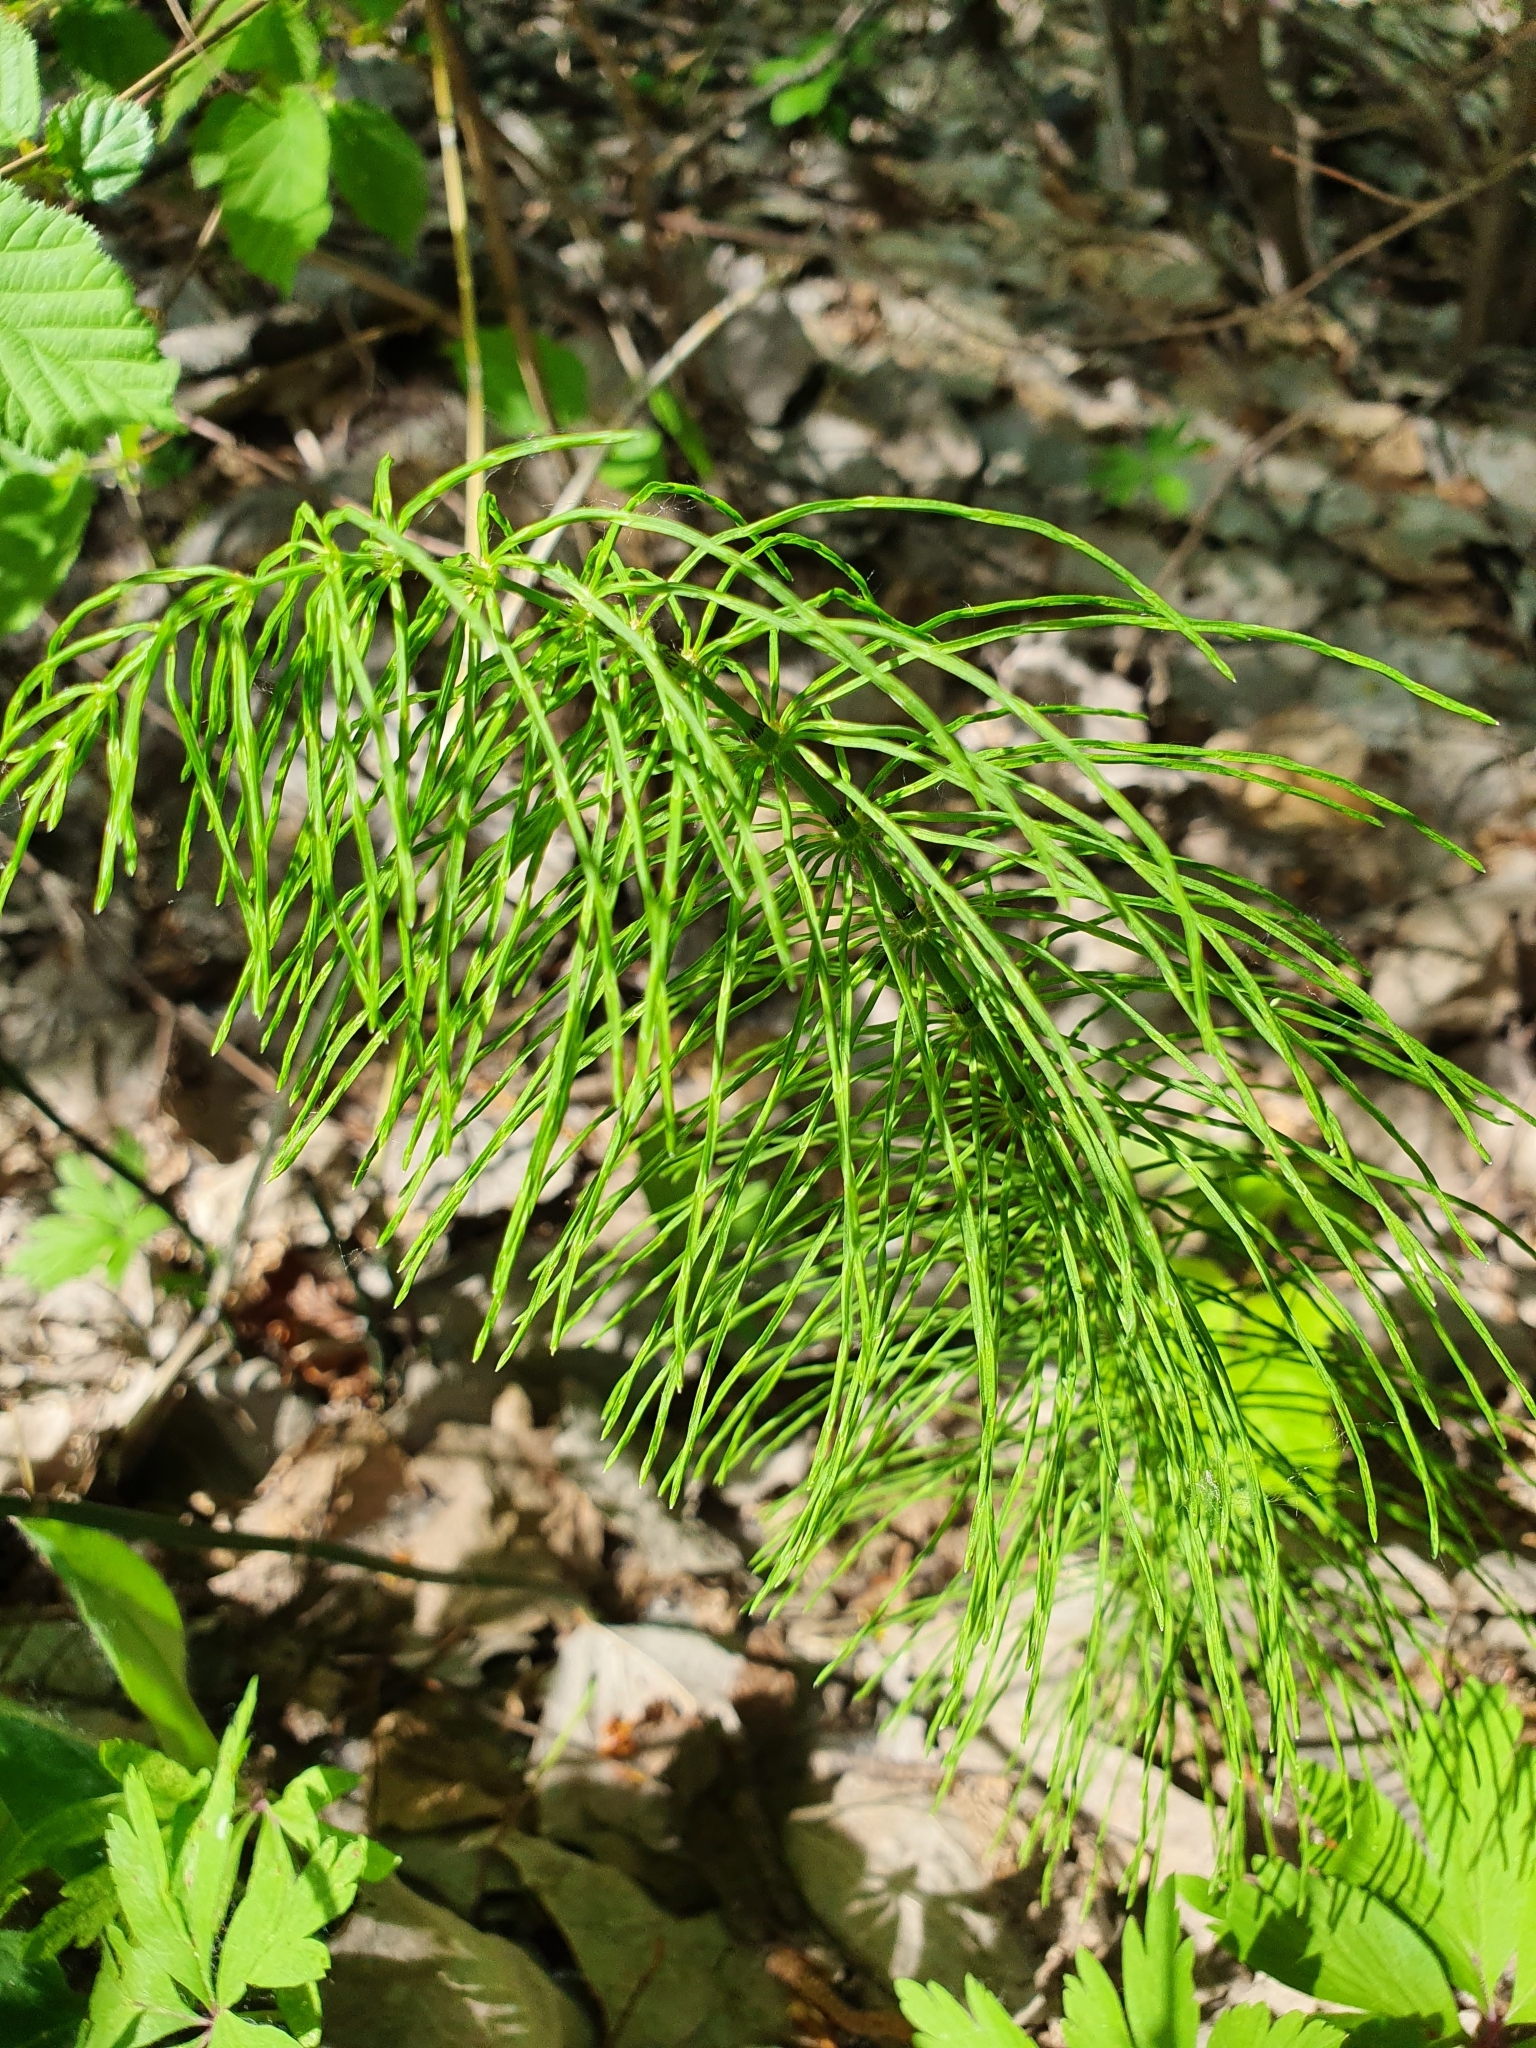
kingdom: Plantae
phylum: Tracheophyta
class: Polypodiopsida
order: Equisetales
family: Equisetaceae
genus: Equisetum
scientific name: Equisetum pratense
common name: Meadow horsetail
